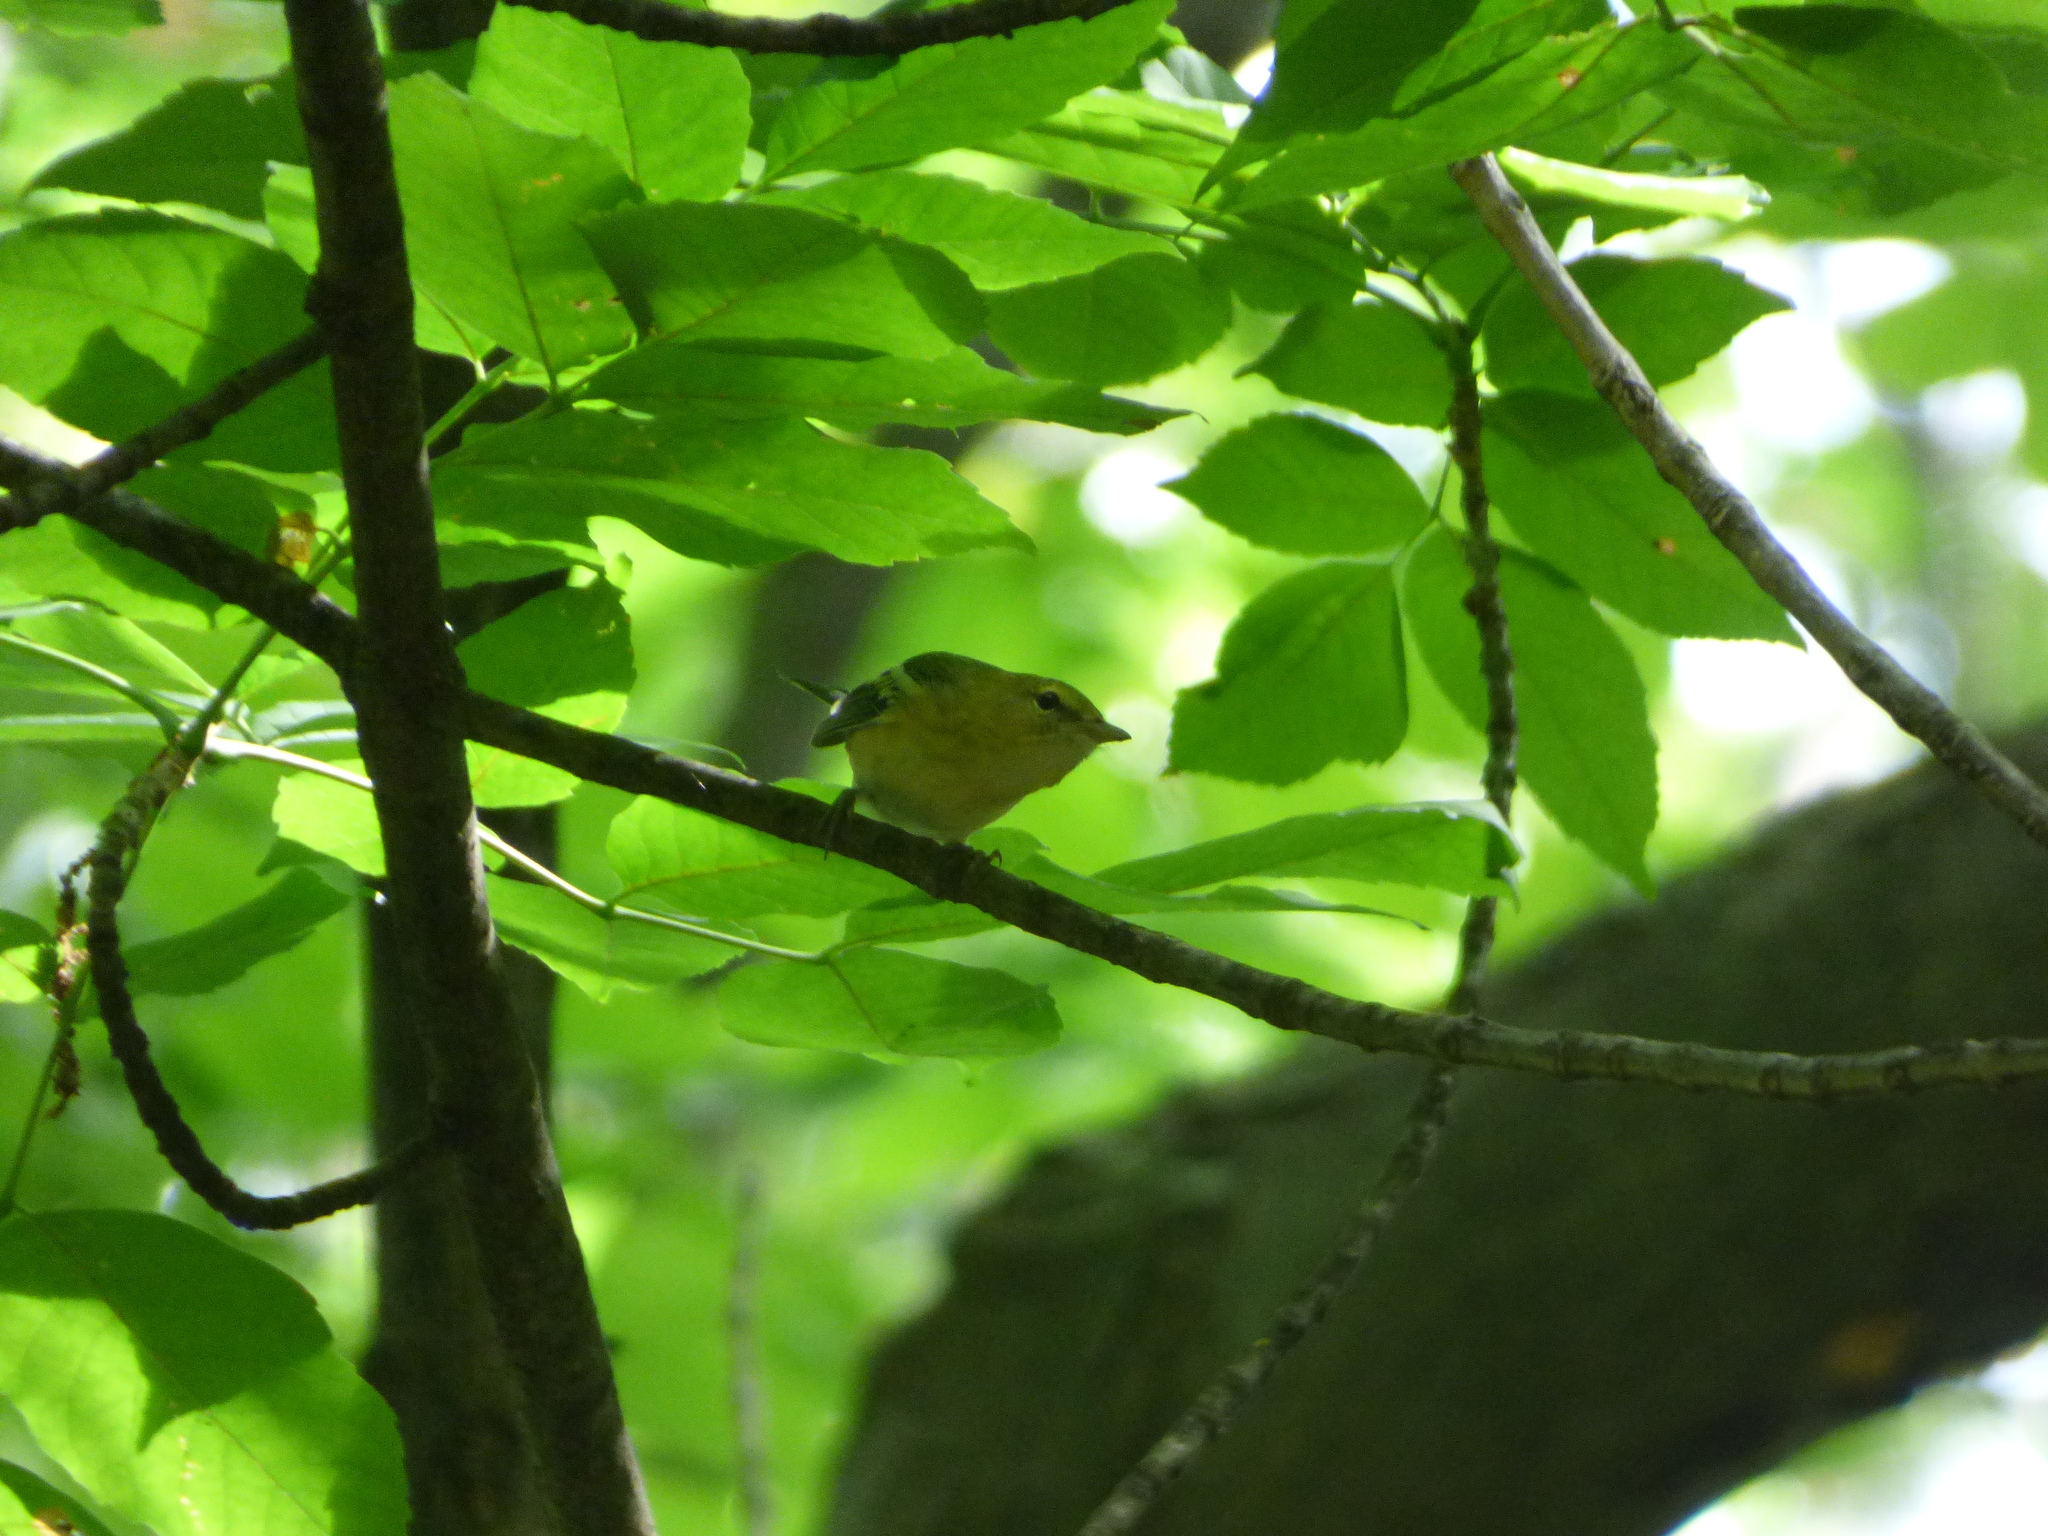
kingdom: Animalia
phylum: Chordata
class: Aves
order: Passeriformes
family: Parulidae
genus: Setophaga
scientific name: Setophaga castanea
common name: Bay-breasted warbler
